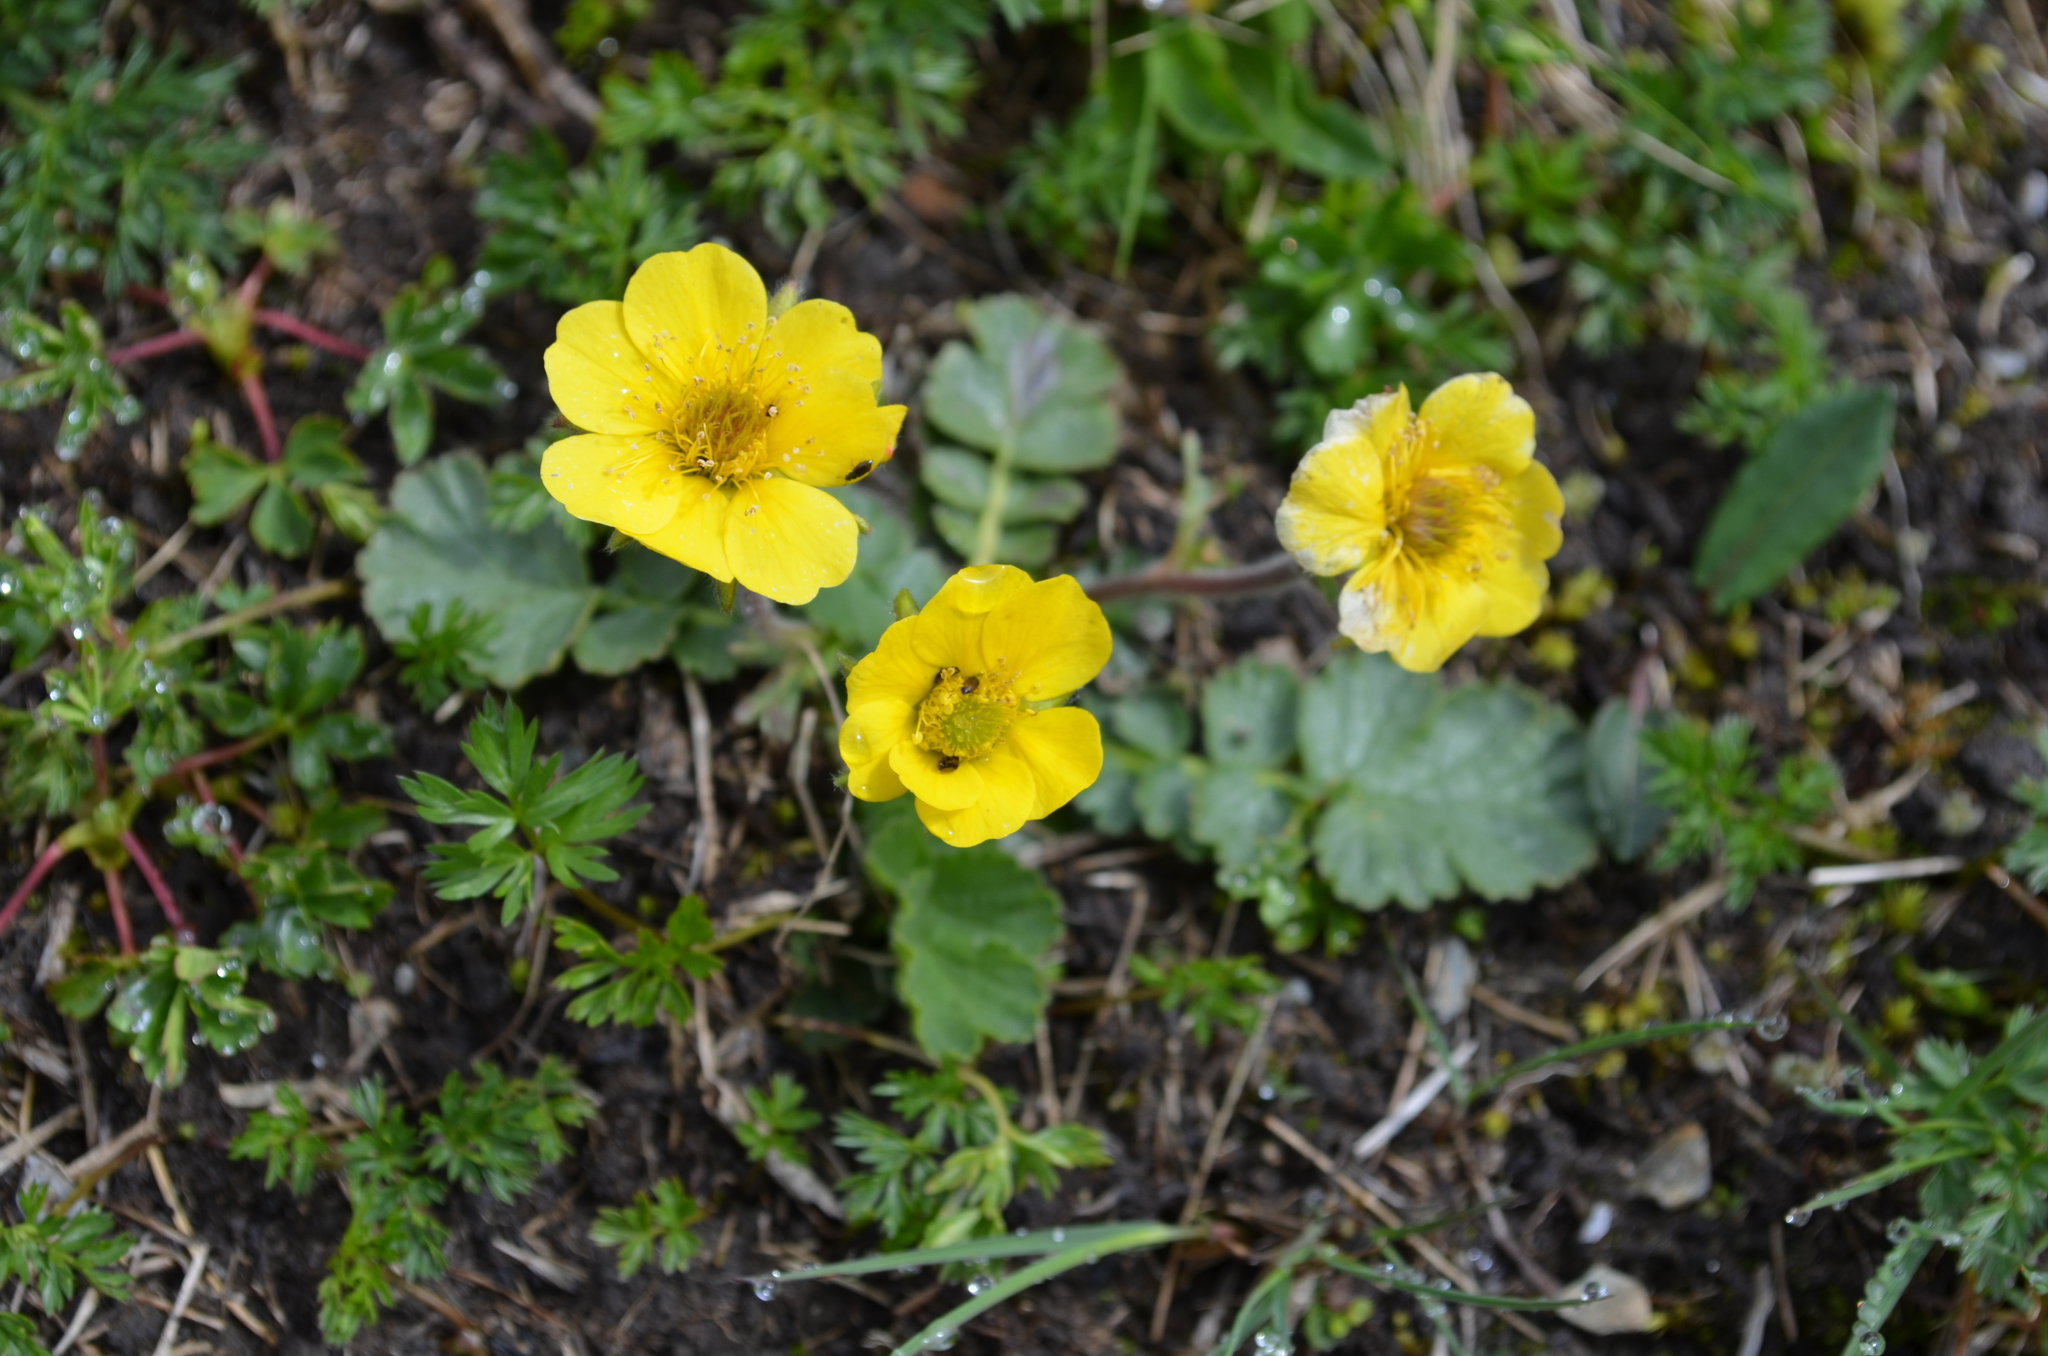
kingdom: Plantae
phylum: Tracheophyta
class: Magnoliopsida
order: Rosales
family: Rosaceae
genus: Geum
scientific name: Geum montanum
